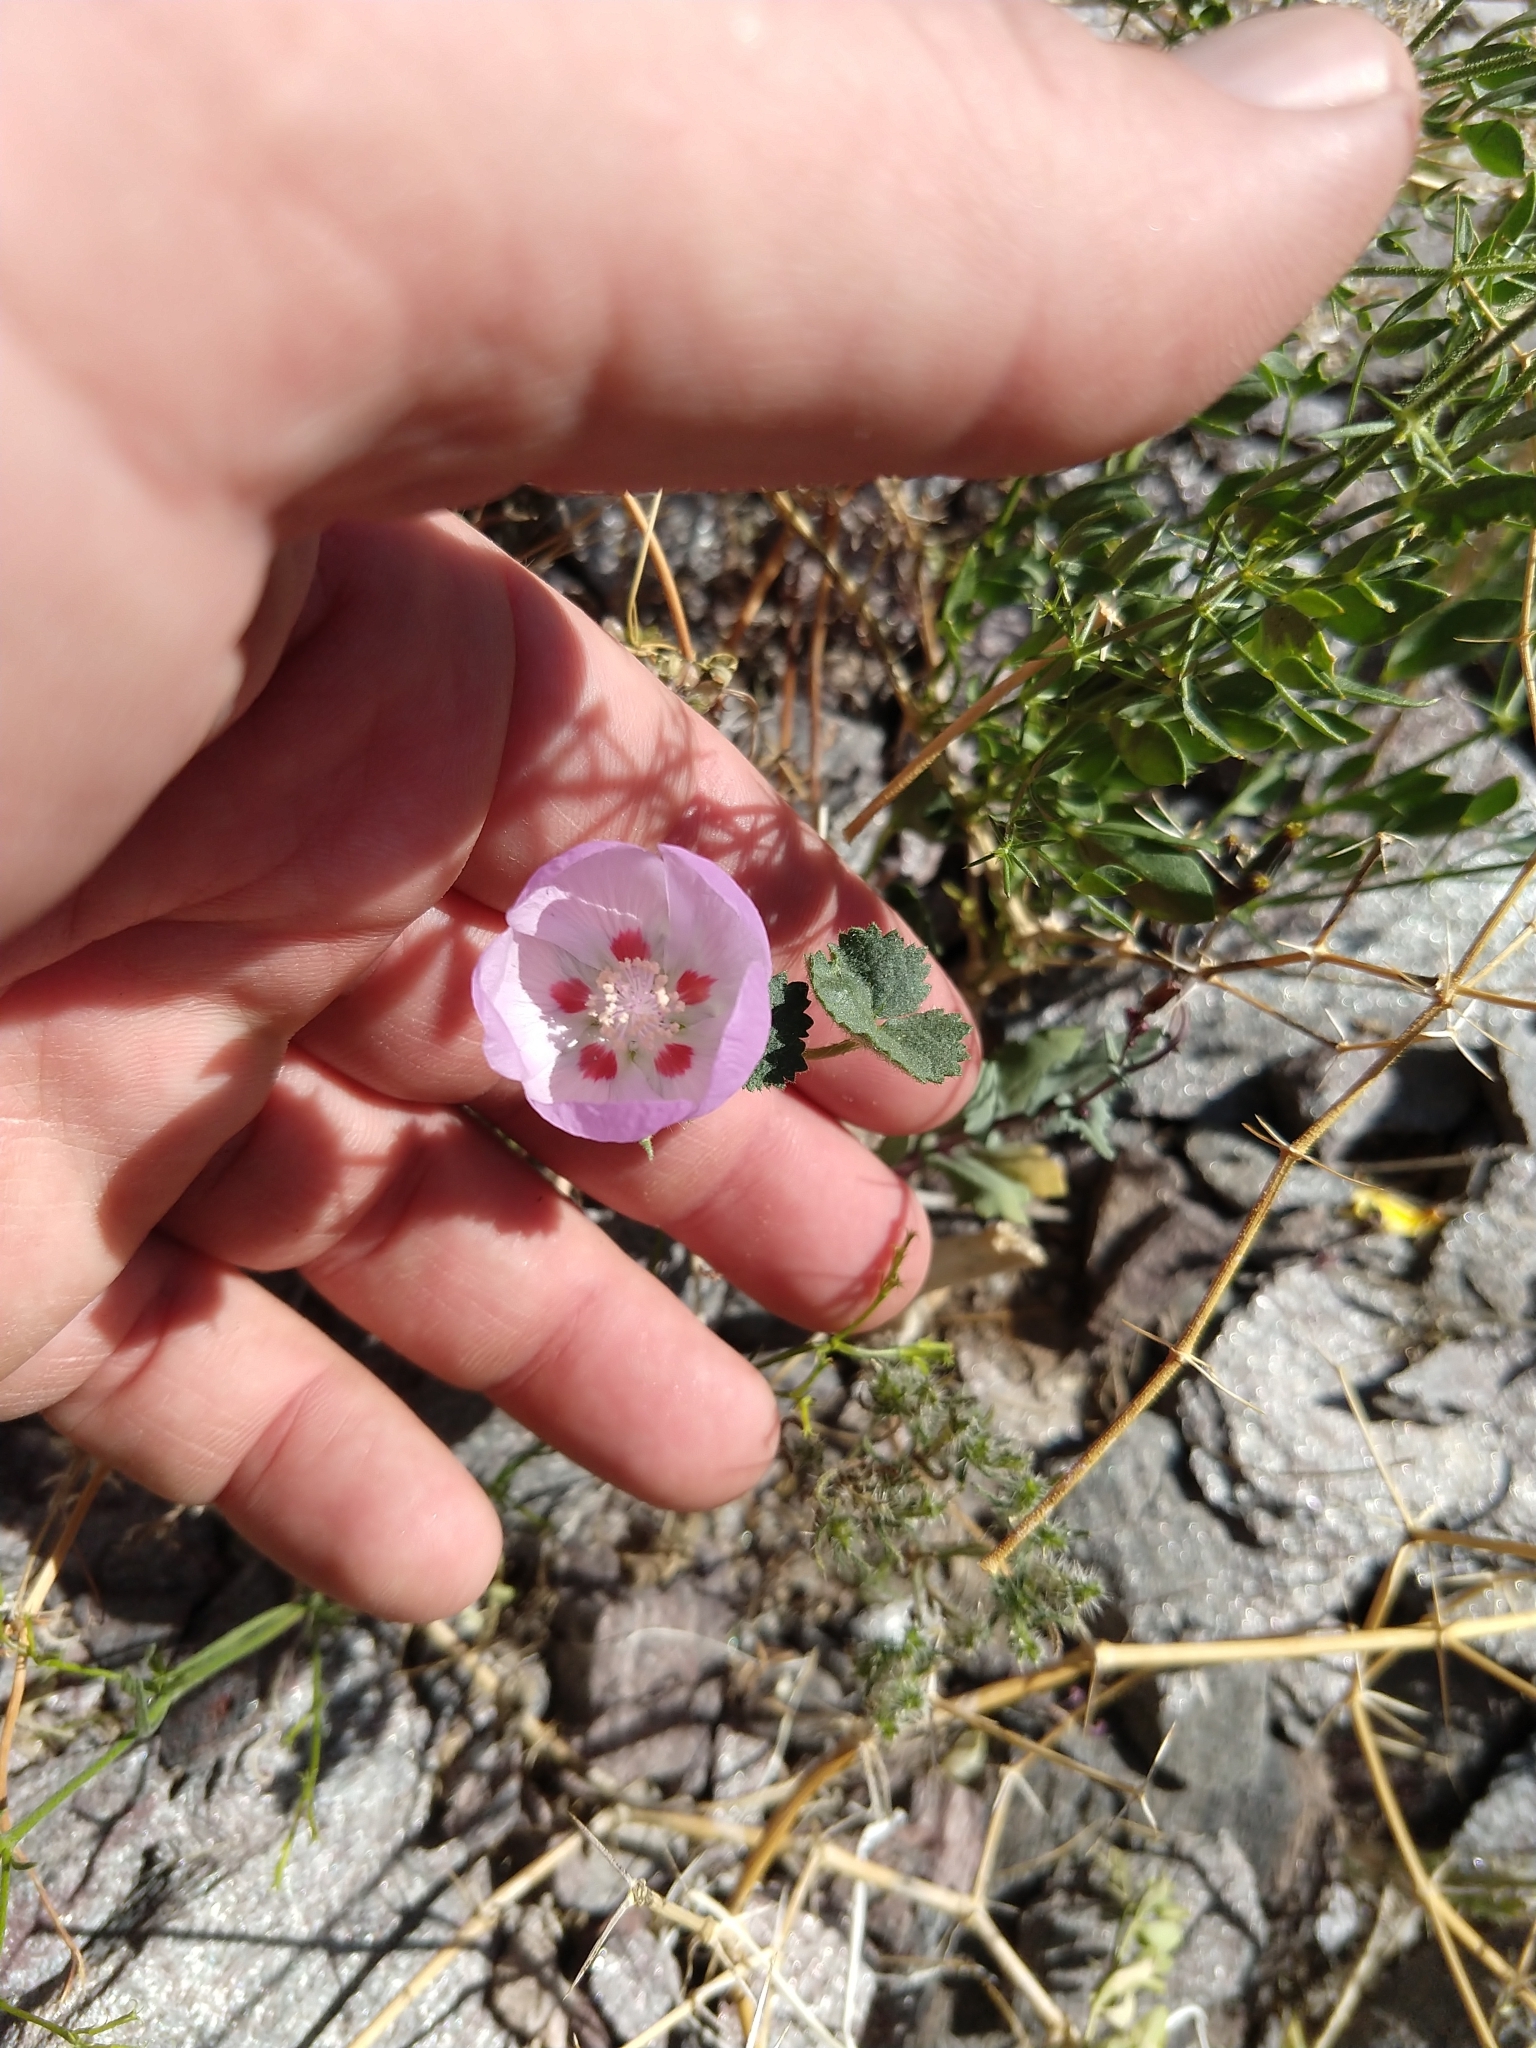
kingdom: Plantae
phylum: Tracheophyta
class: Magnoliopsida
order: Malvales
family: Malvaceae
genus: Eremalche
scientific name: Eremalche rotundifolia
